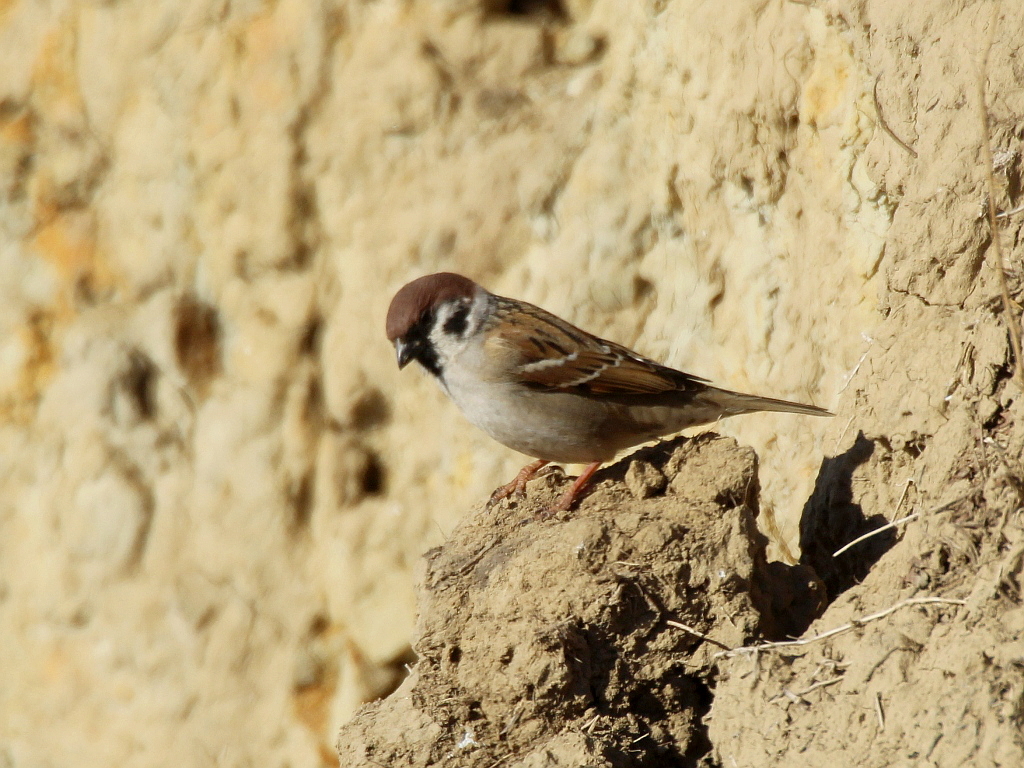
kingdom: Animalia
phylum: Chordata
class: Aves
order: Passeriformes
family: Passeridae
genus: Passer
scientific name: Passer montanus
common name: Eurasian tree sparrow
